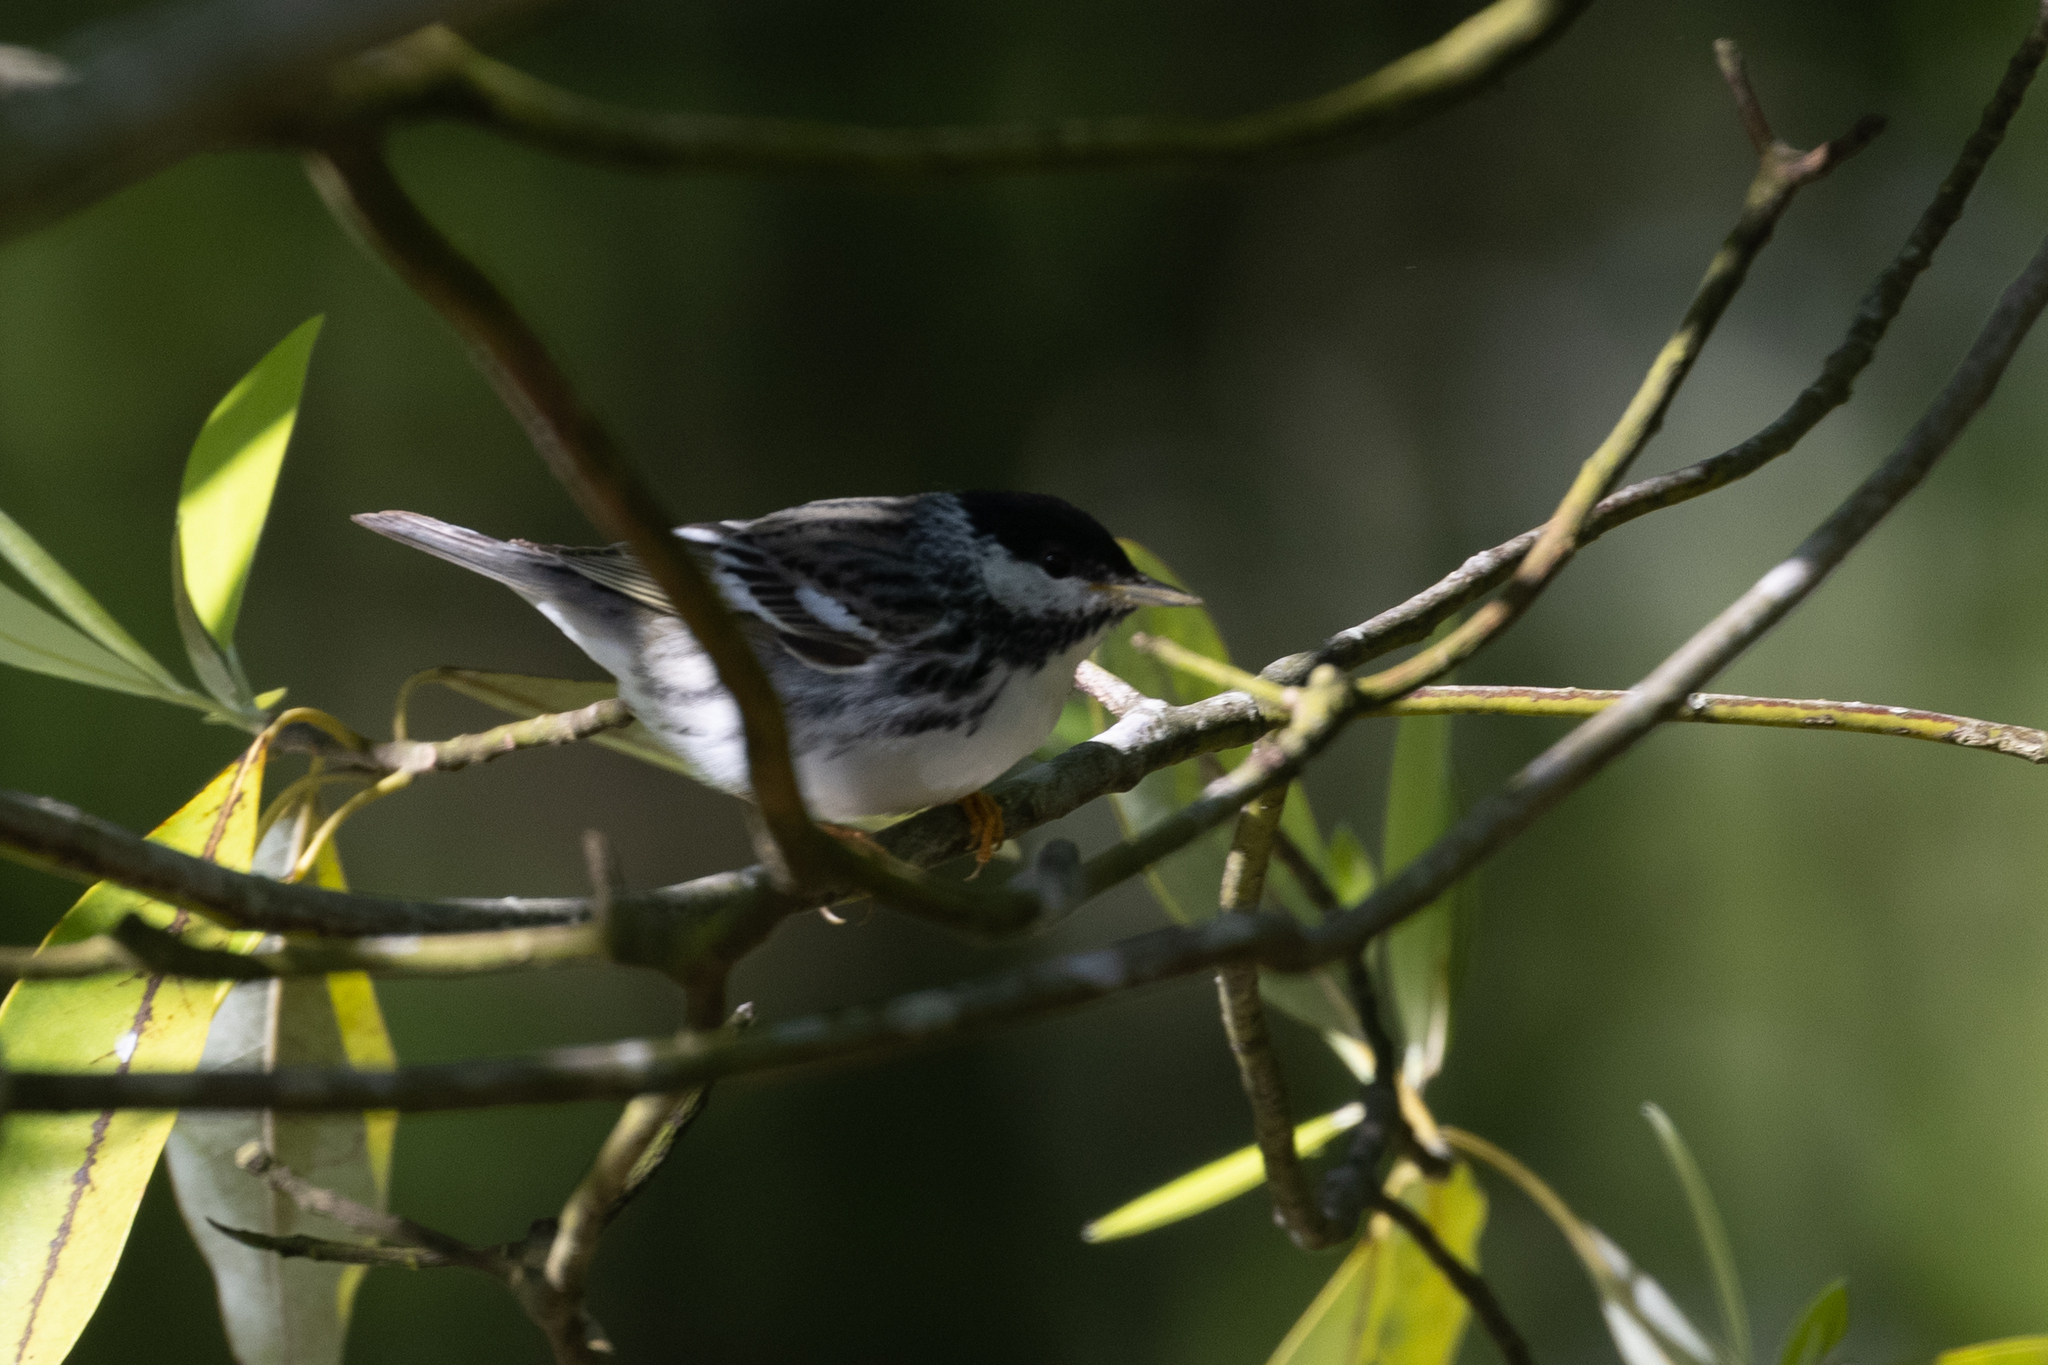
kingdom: Animalia
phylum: Chordata
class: Aves
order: Passeriformes
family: Parulidae
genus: Setophaga
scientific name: Setophaga striata
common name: Blackpoll warbler
